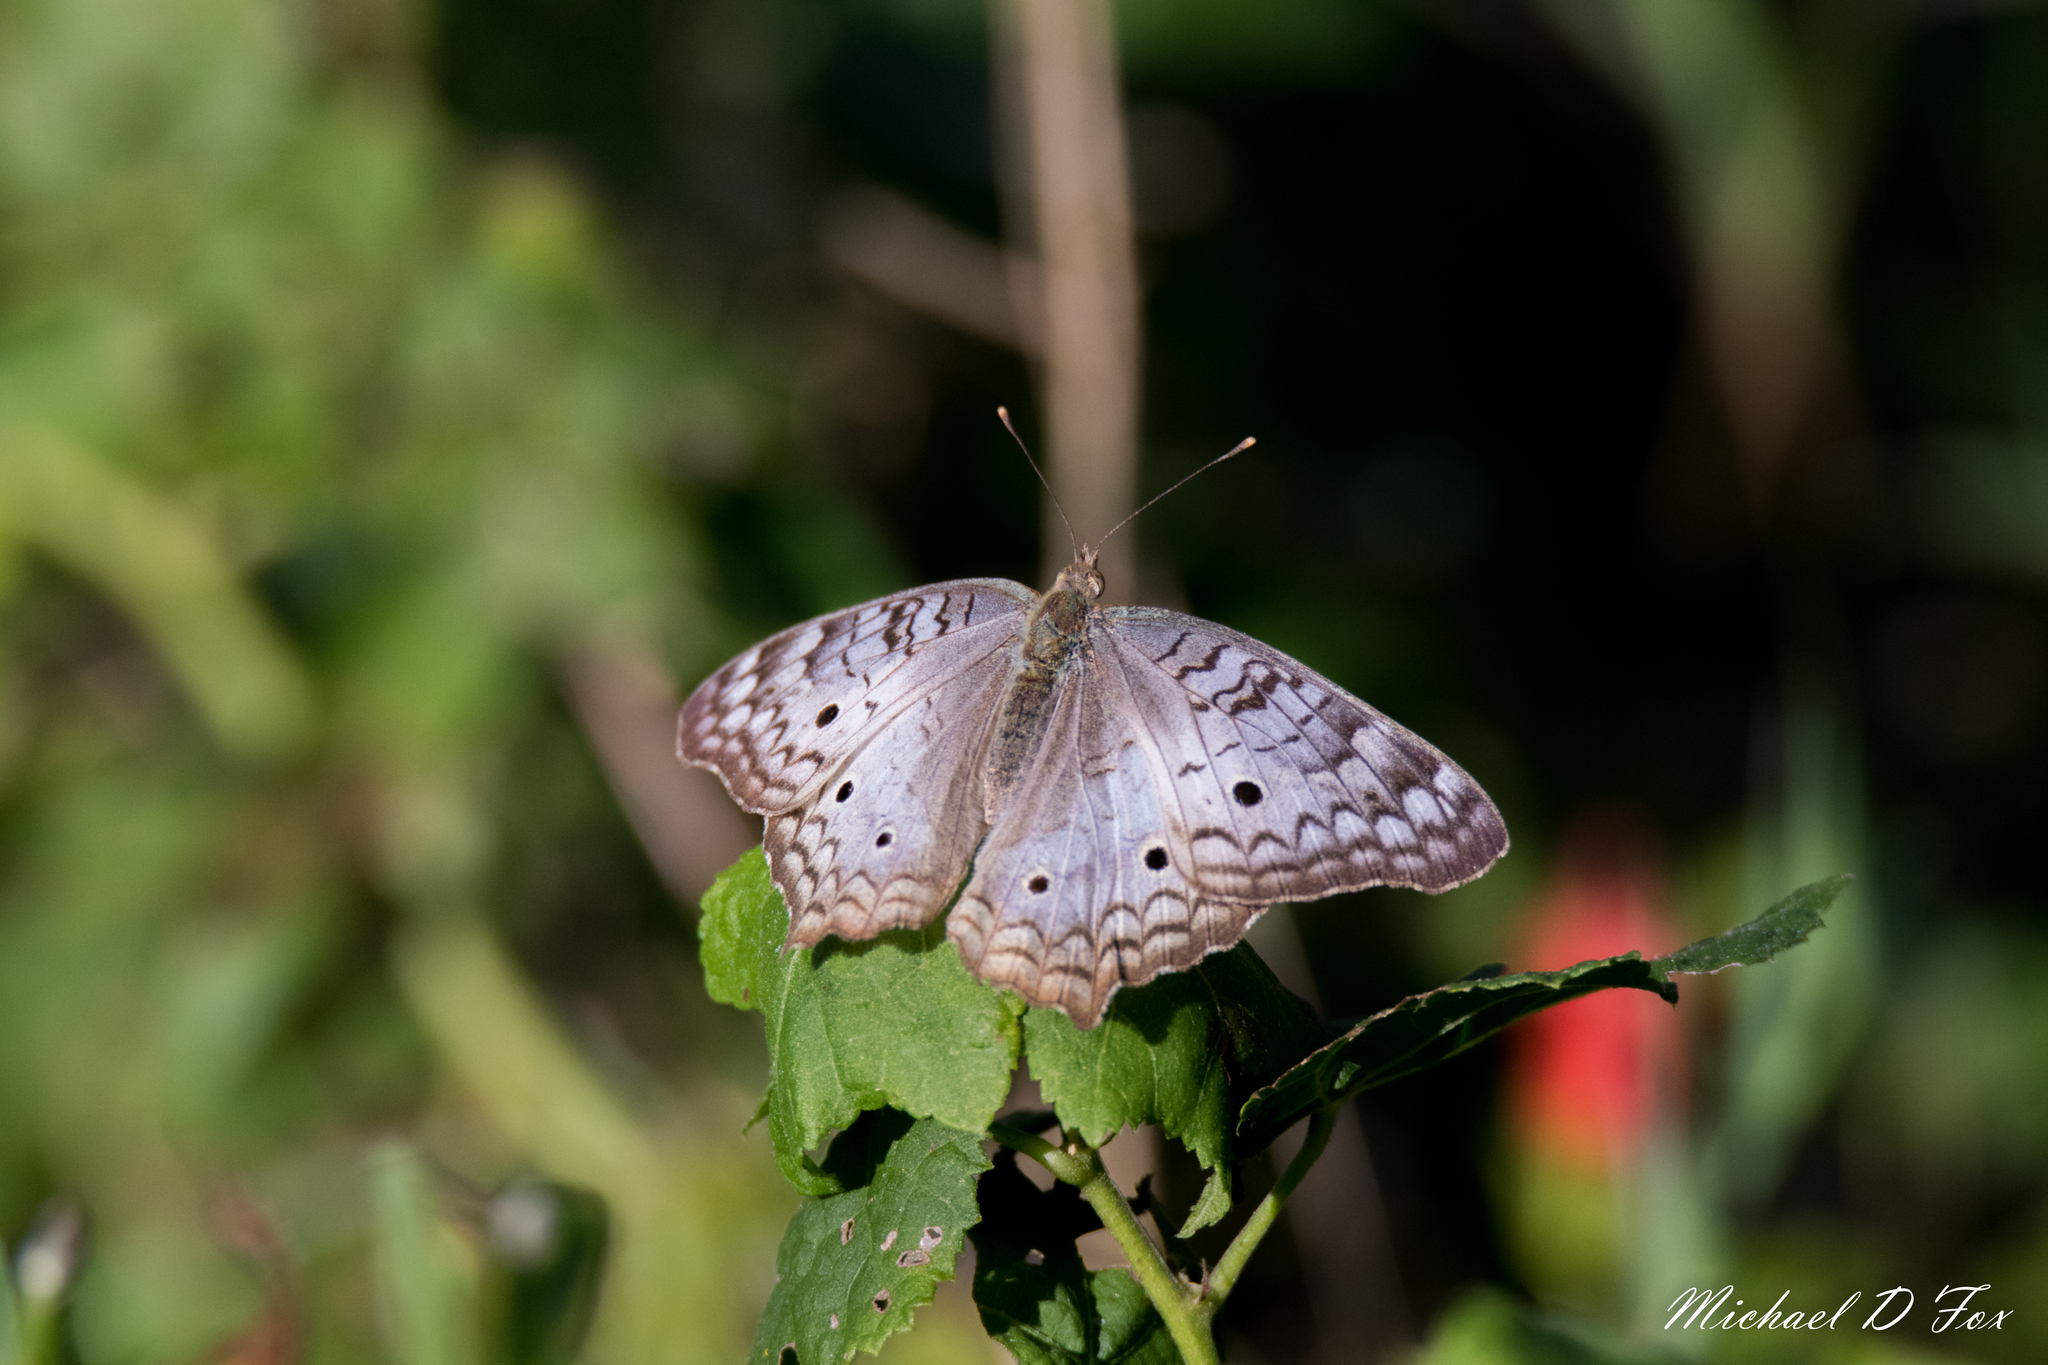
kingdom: Animalia
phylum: Arthropoda
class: Insecta
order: Lepidoptera
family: Nymphalidae
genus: Anartia
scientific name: Anartia jatrophae
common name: White peacock
